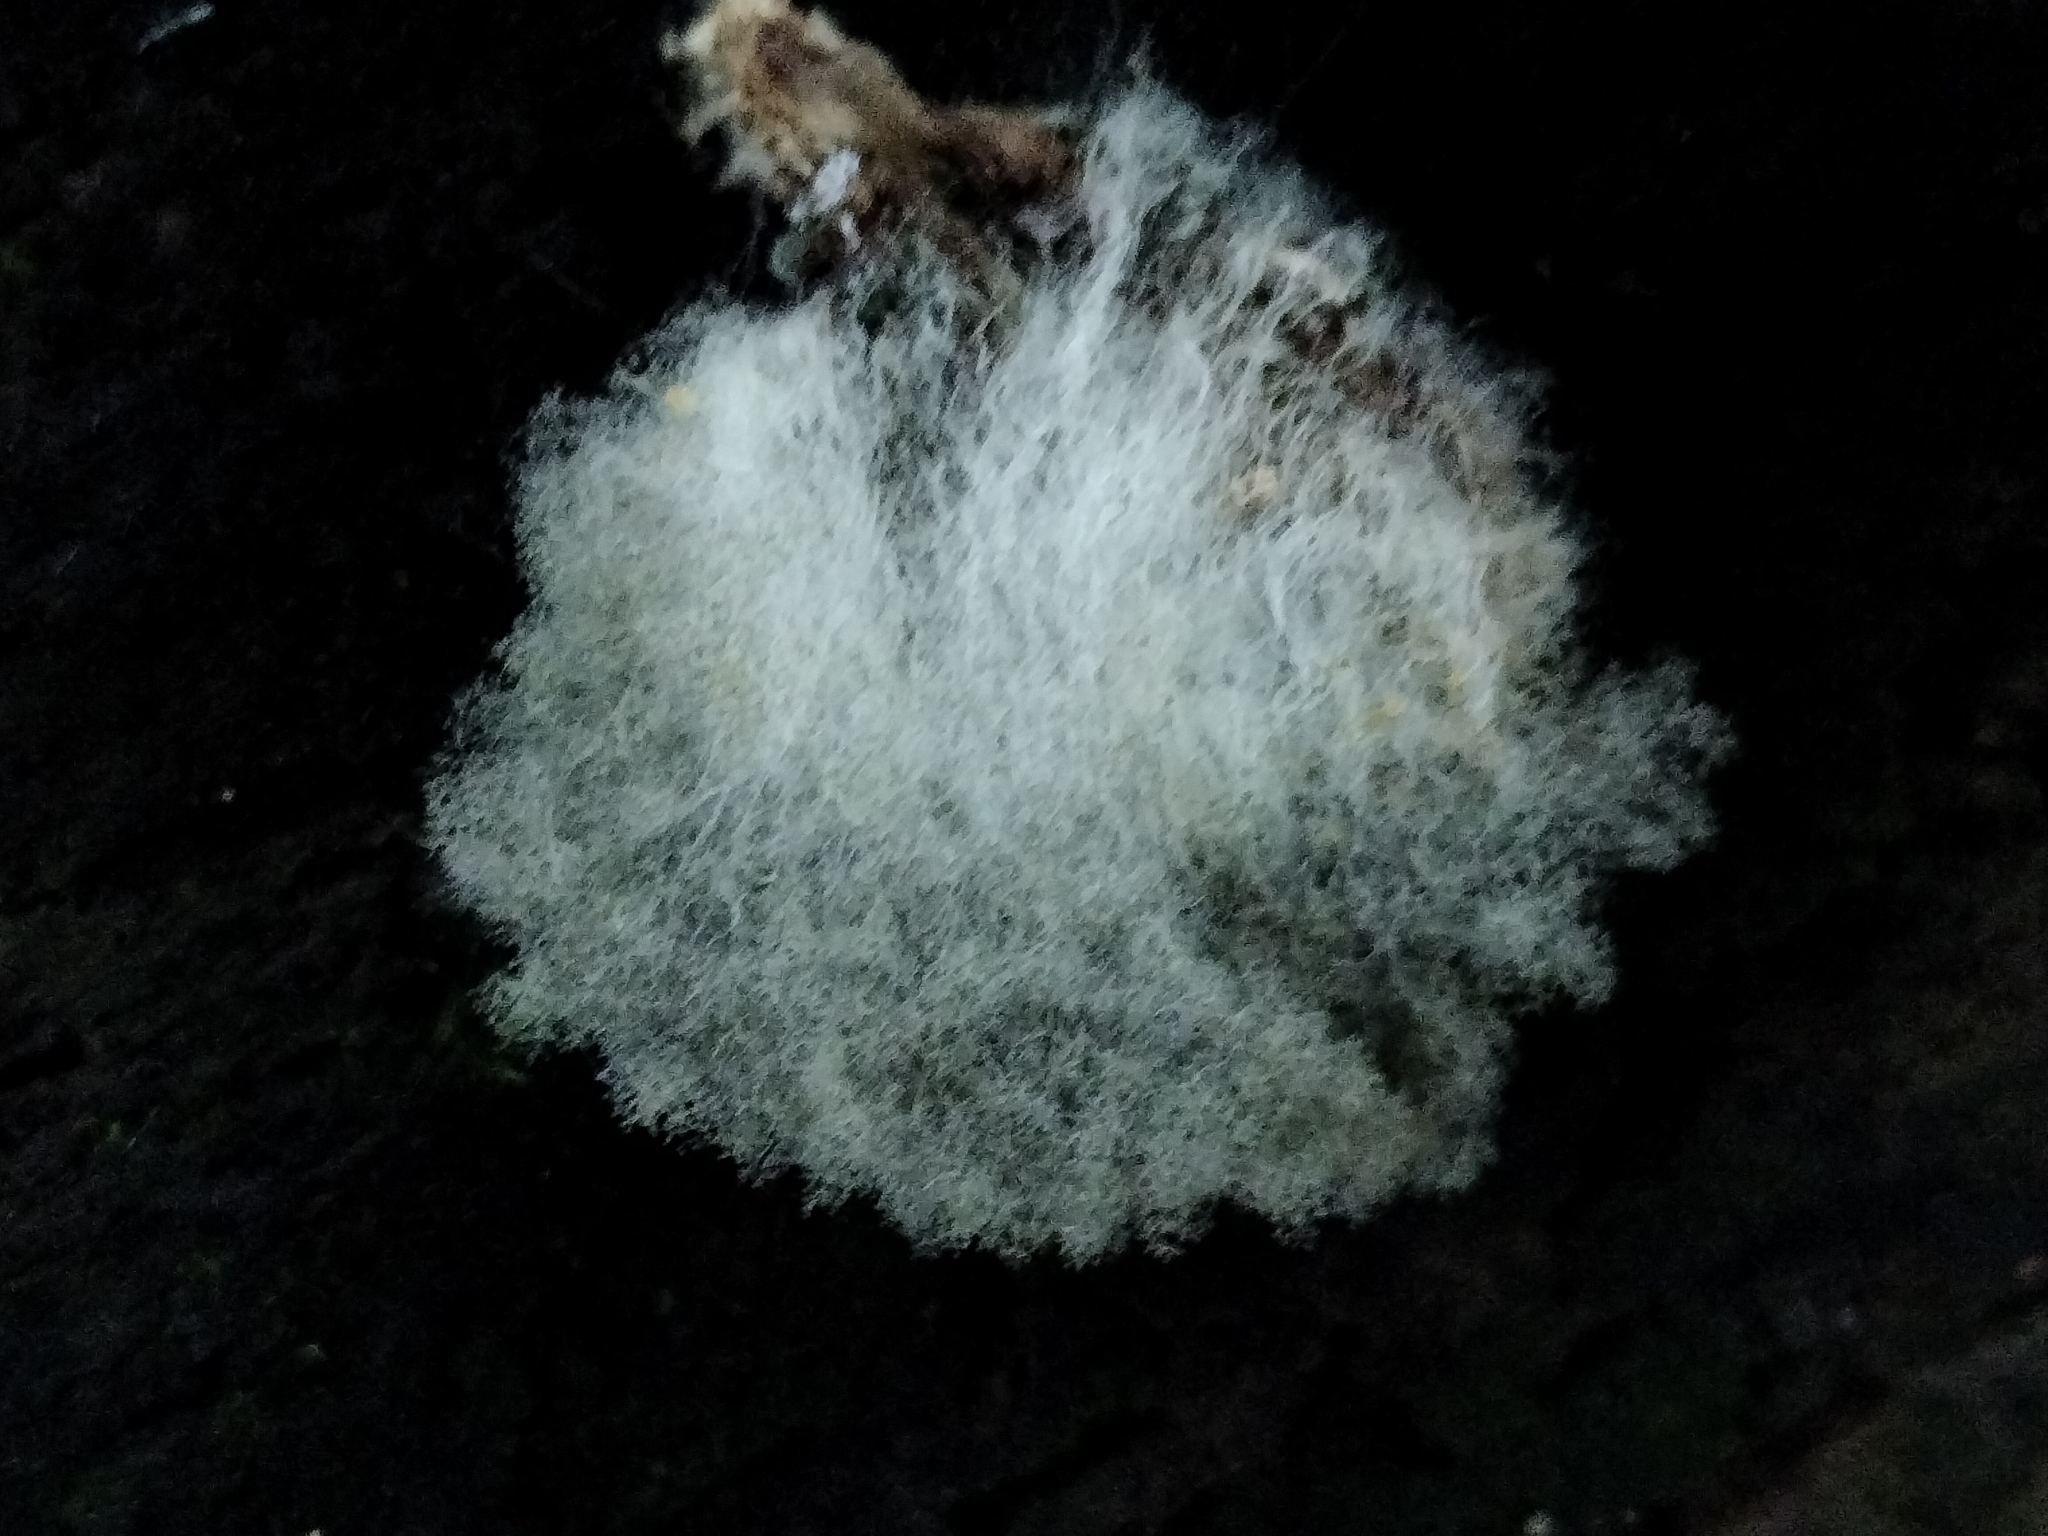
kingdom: Fungi
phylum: Mucoromycota
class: Mucoromycetes
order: Mucorales
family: Rhizopodaceae
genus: Syzygites
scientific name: Syzygites megalocarpus
